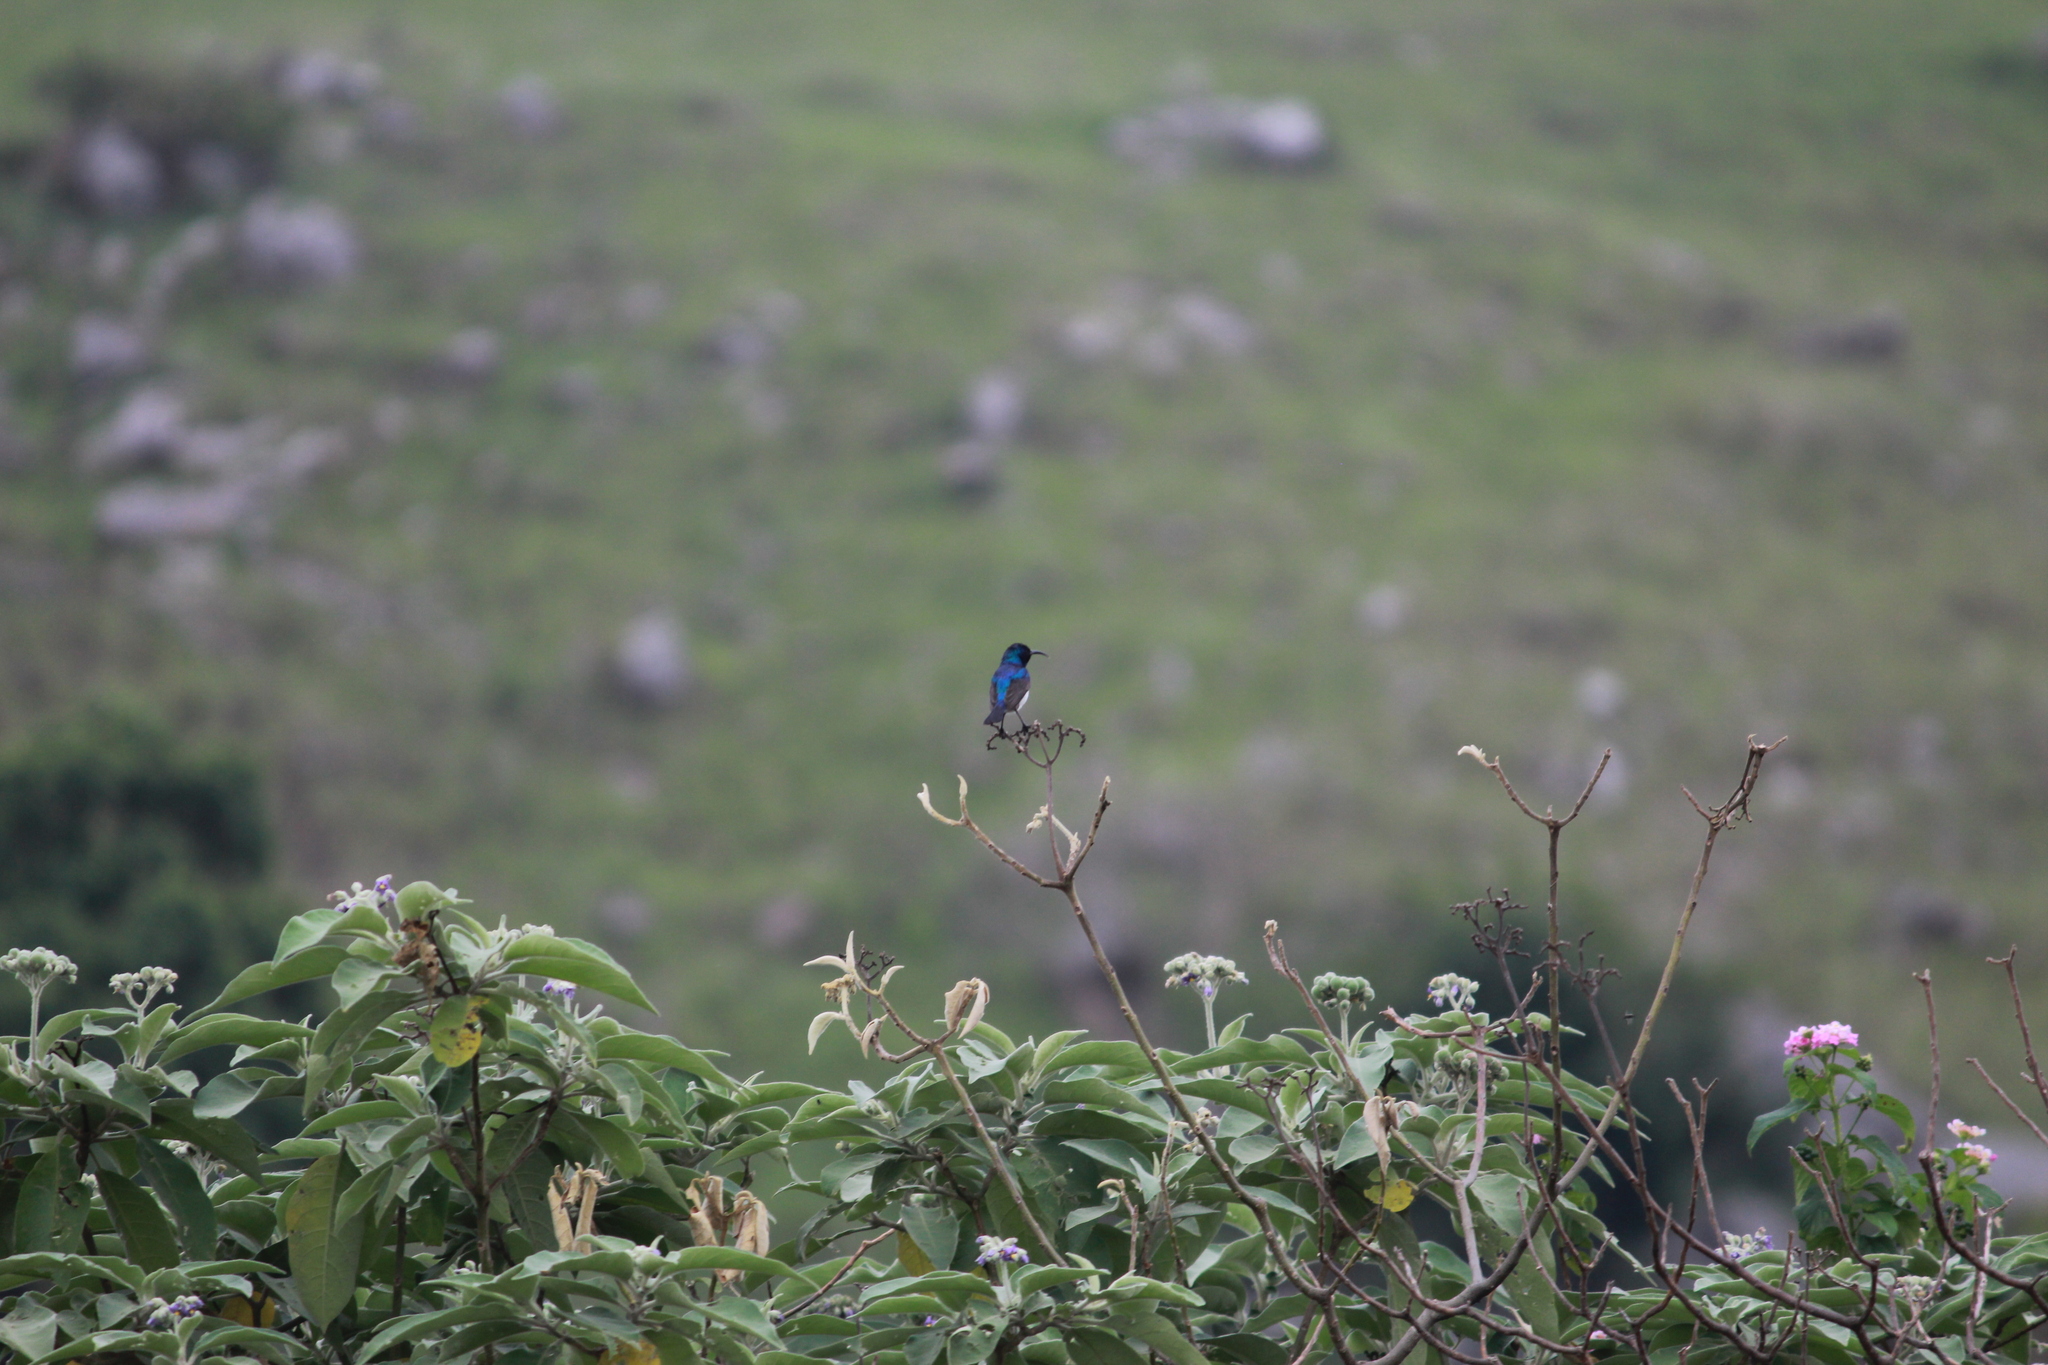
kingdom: Animalia
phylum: Chordata
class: Aves
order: Passeriformes
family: Nectariniidae
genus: Cinnyris
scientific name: Cinnyris talatala
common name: White-bellied sunbird
